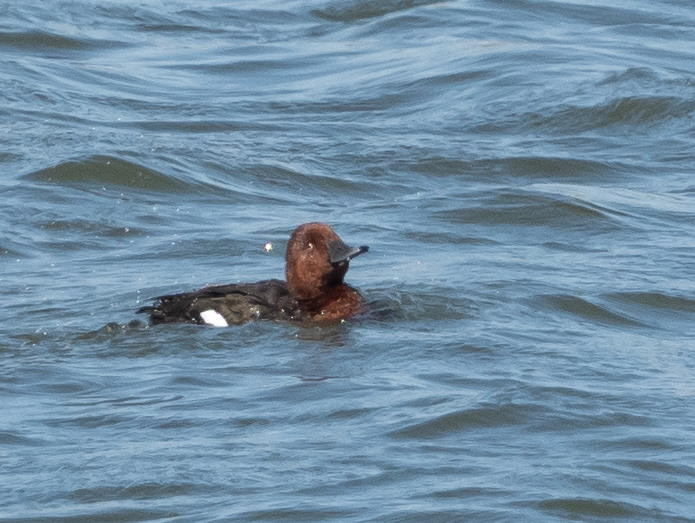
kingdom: Animalia
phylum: Chordata
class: Aves
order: Anseriformes
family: Anatidae
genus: Aythya
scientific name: Aythya nyroca
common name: Ferruginous duck
